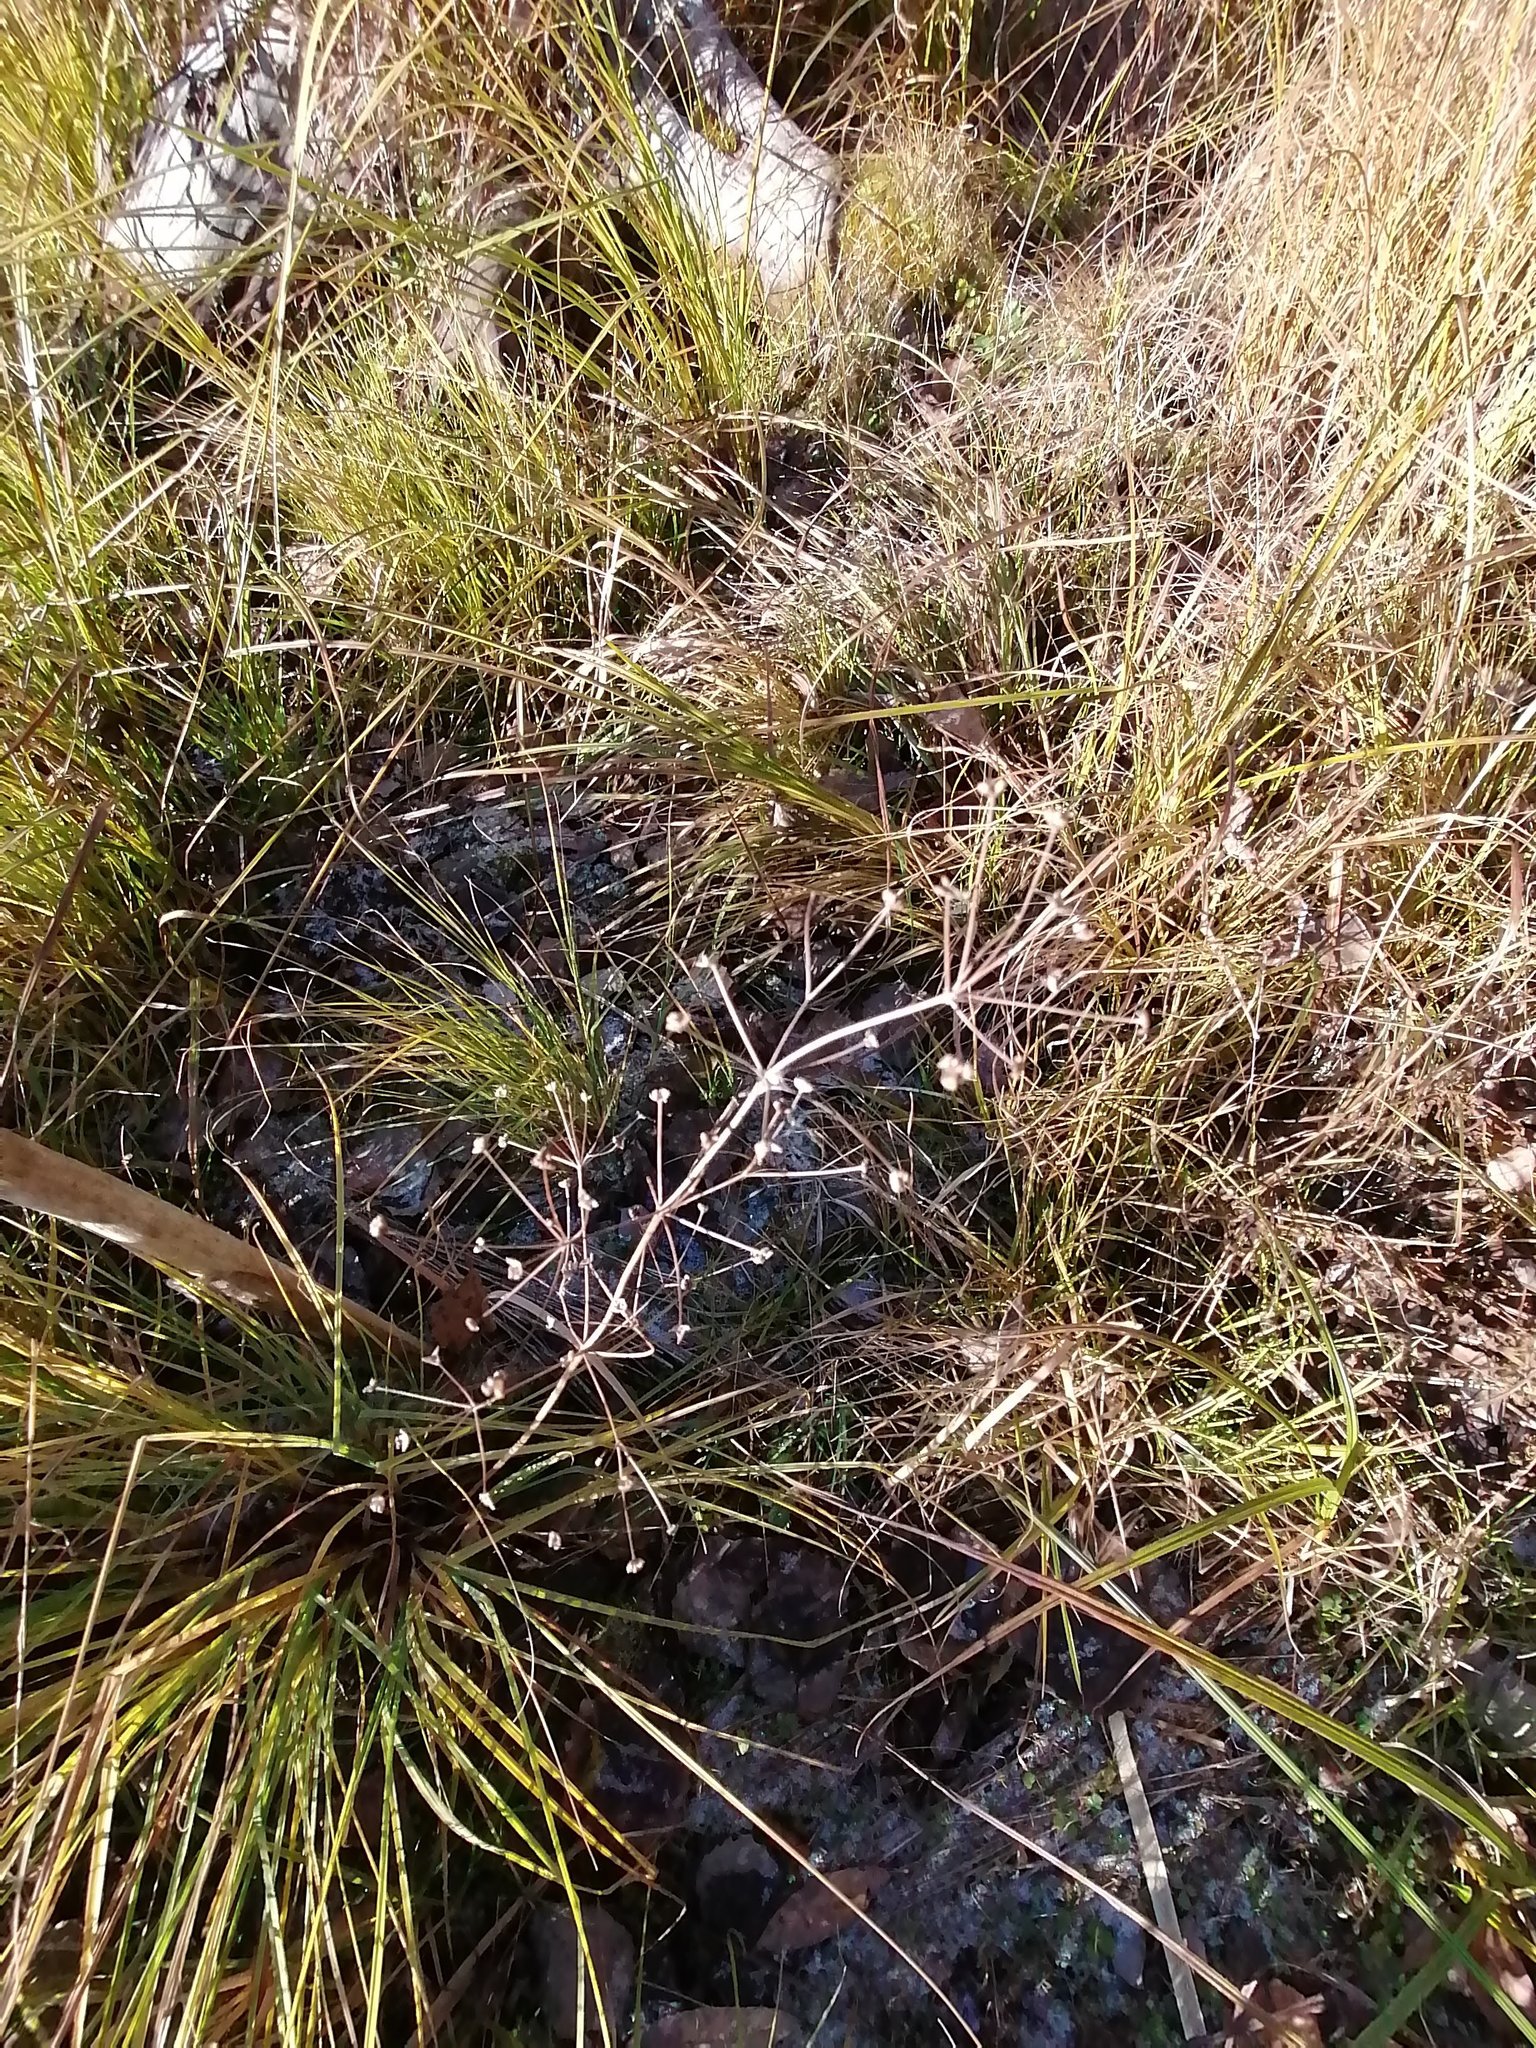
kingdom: Plantae
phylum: Tracheophyta
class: Liliopsida
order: Alismatales
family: Alismataceae
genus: Alisma
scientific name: Alisma plantago-aquatica
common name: Water-plantain
